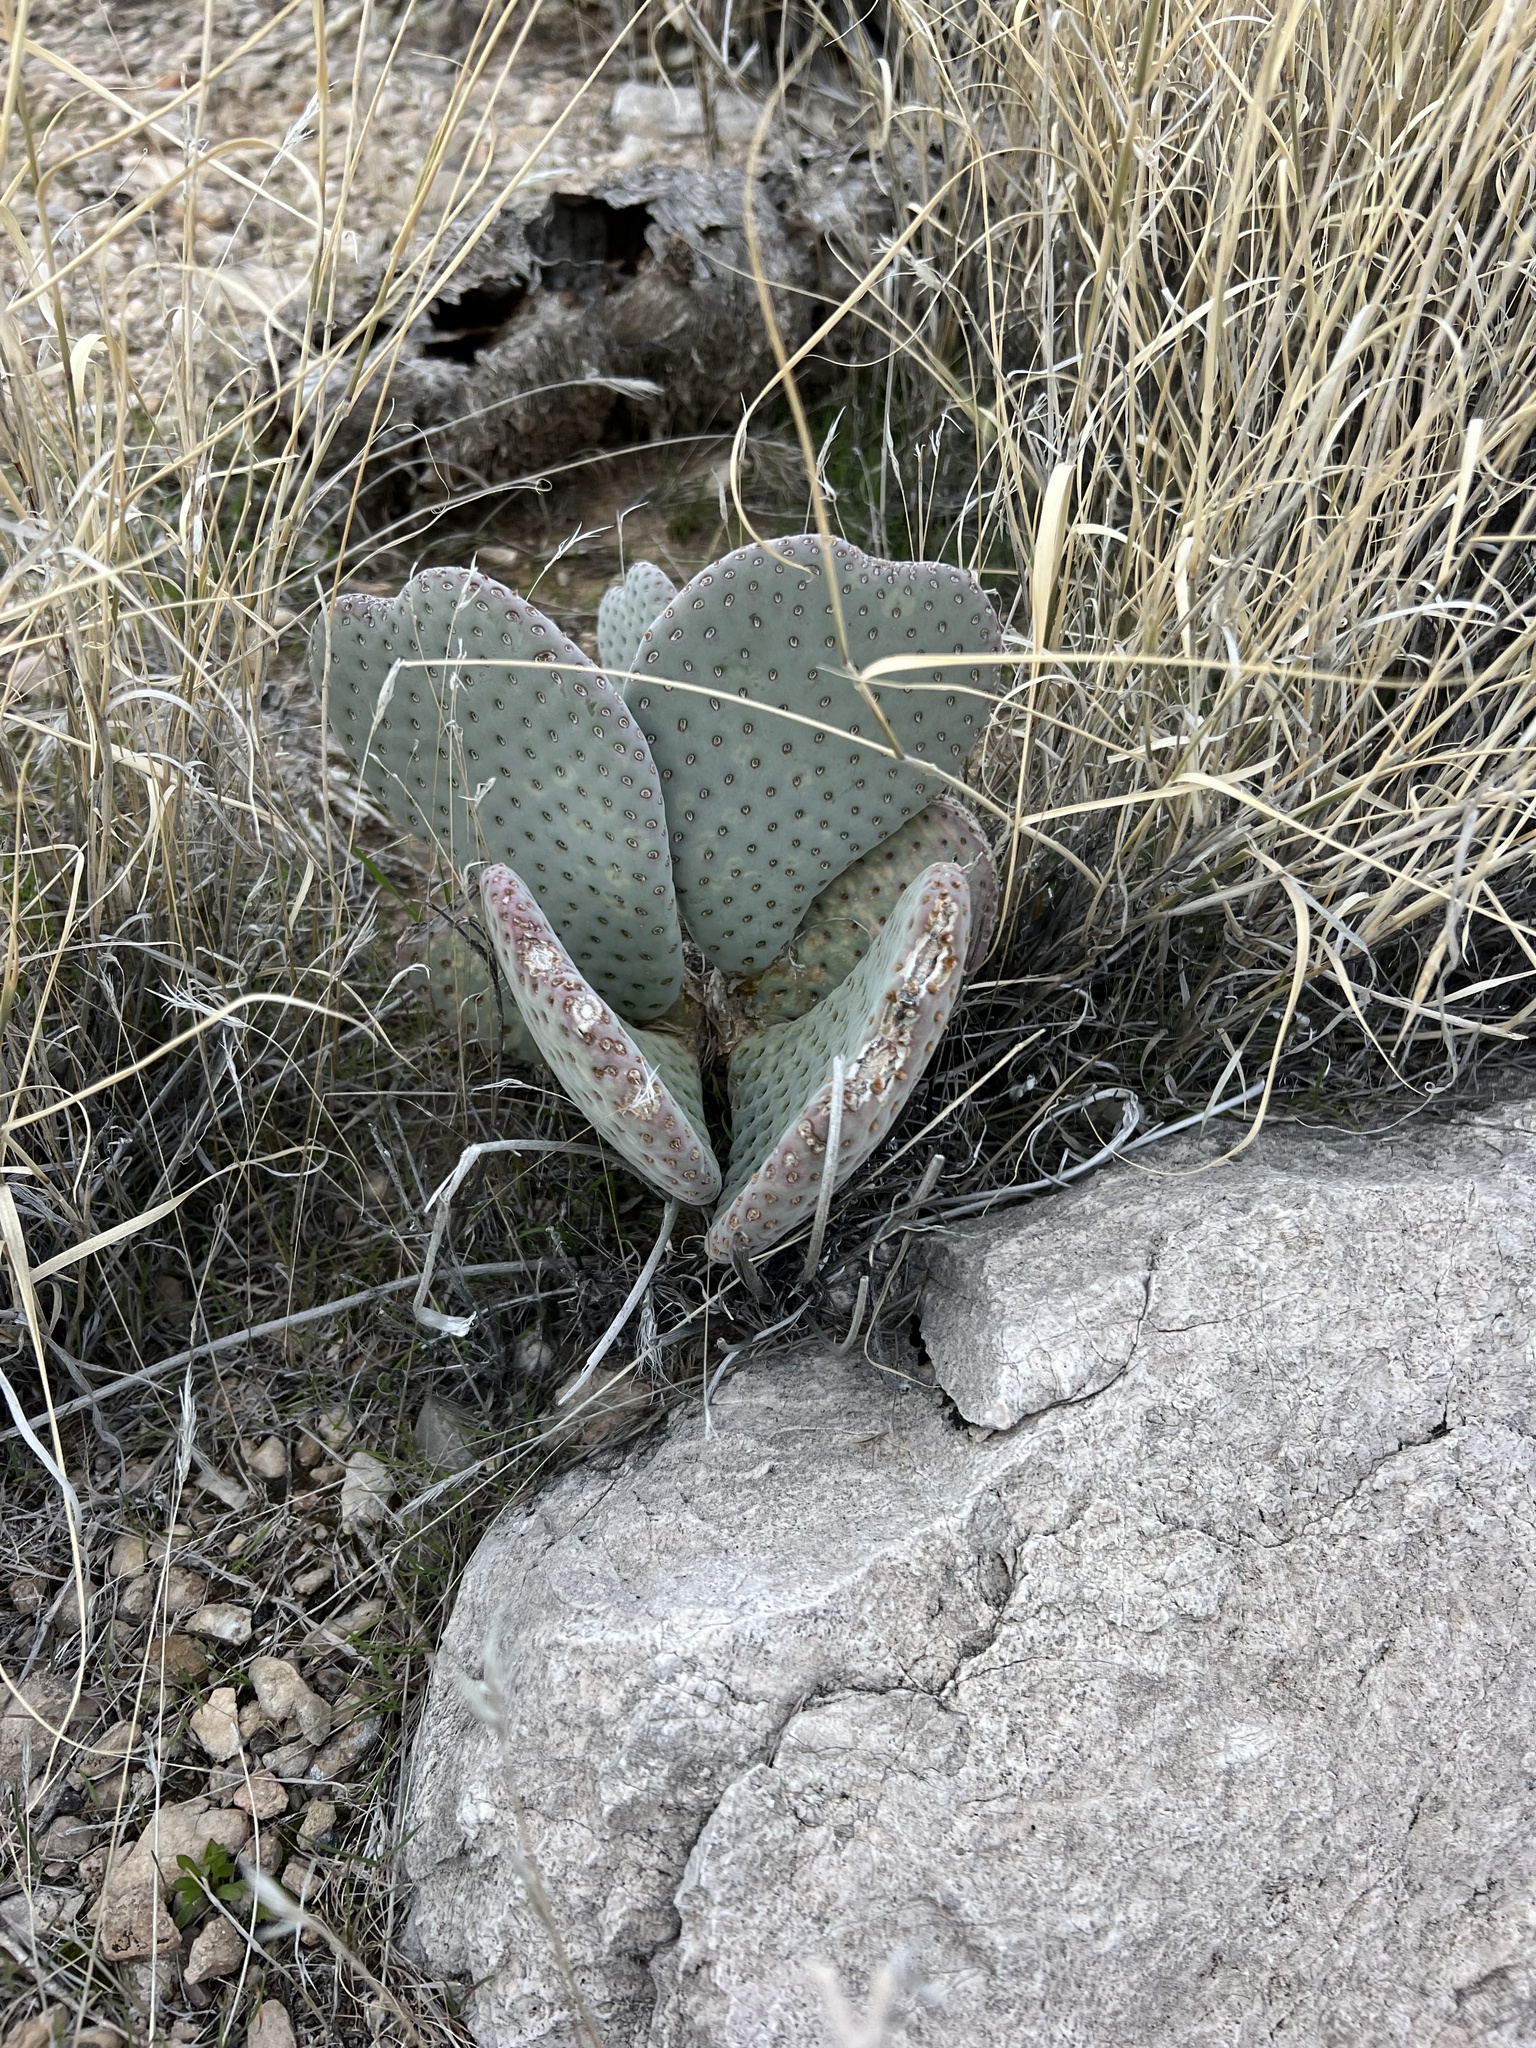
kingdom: Plantae
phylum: Tracheophyta
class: Magnoliopsida
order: Caryophyllales
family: Cactaceae
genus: Opuntia
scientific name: Opuntia basilaris
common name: Beavertail prickly-pear
